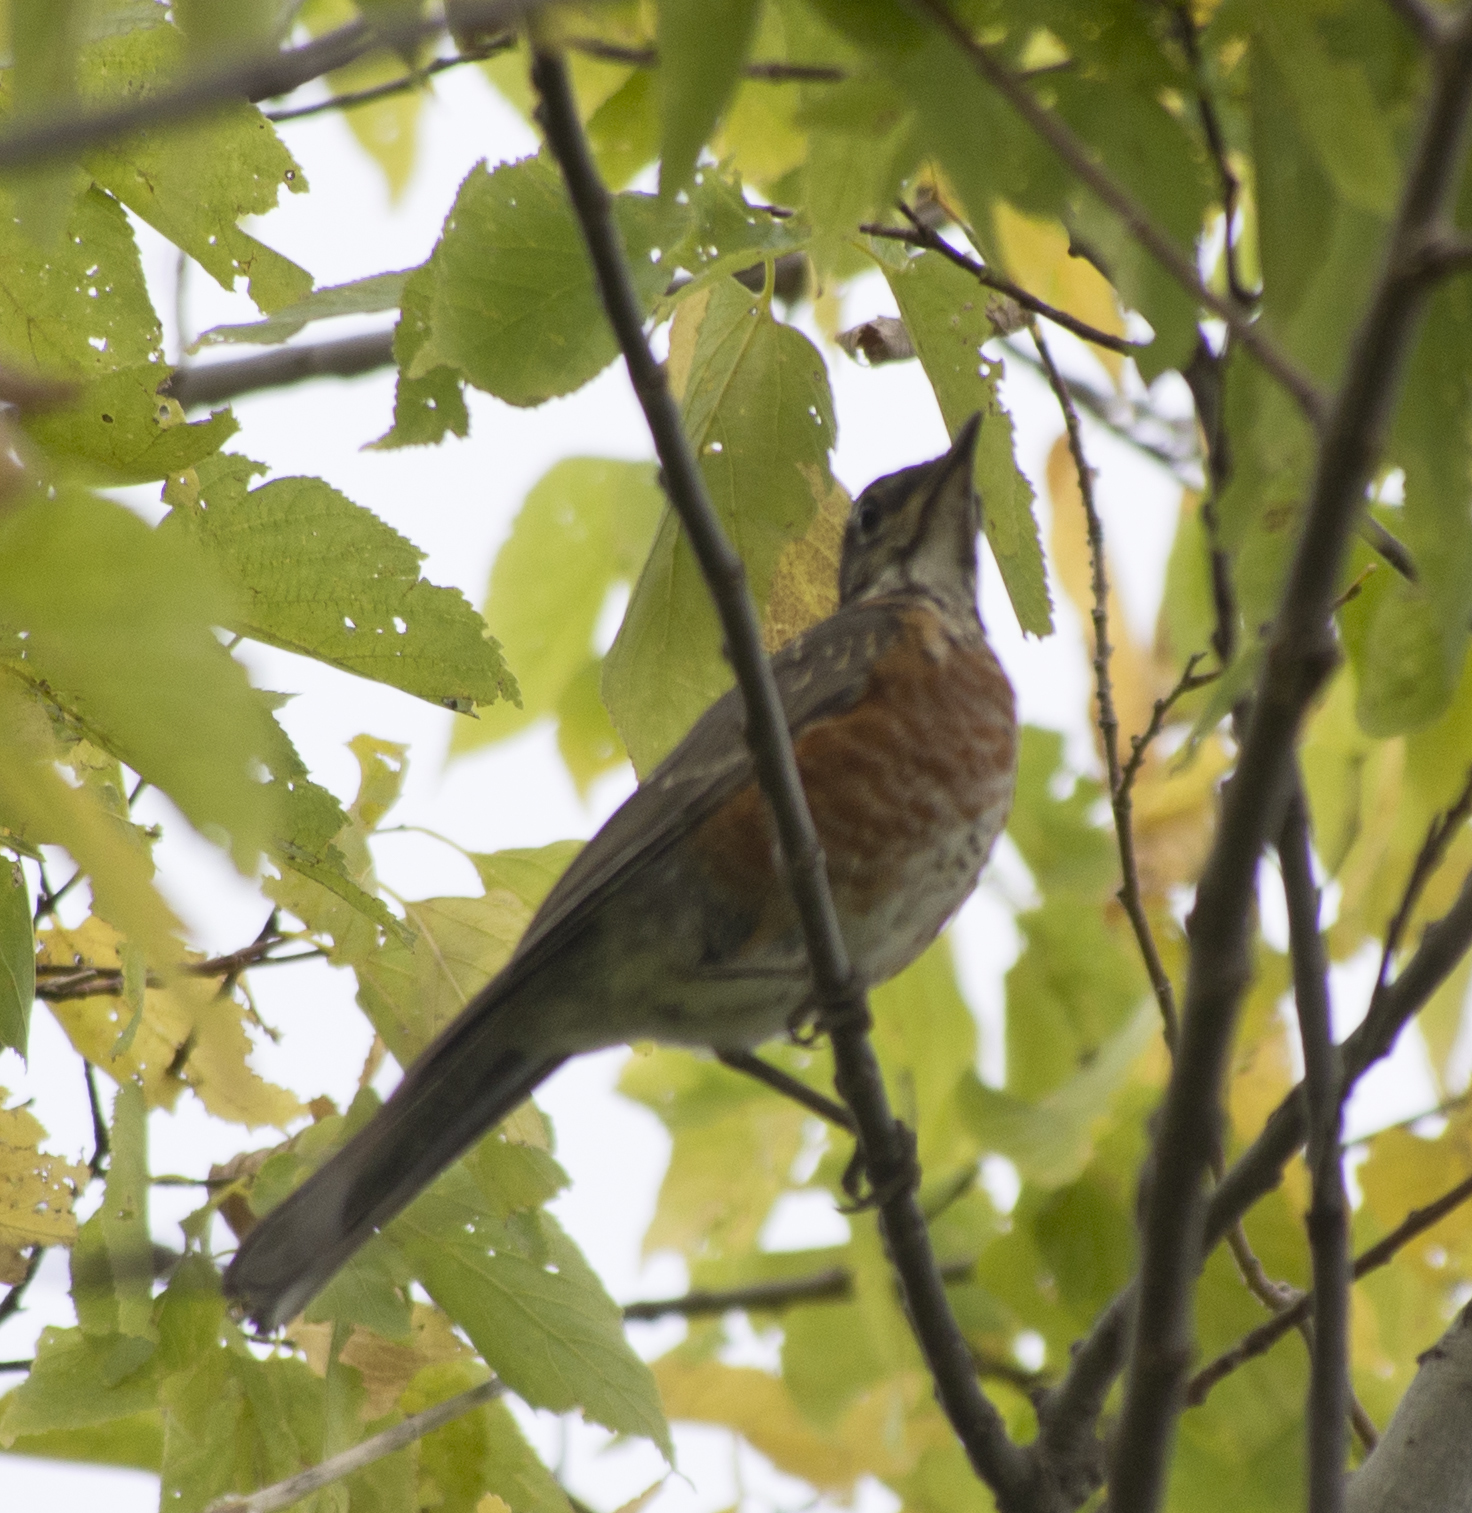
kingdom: Animalia
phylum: Chordata
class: Aves
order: Passeriformes
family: Turdidae
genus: Turdus
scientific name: Turdus migratorius
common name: American robin
